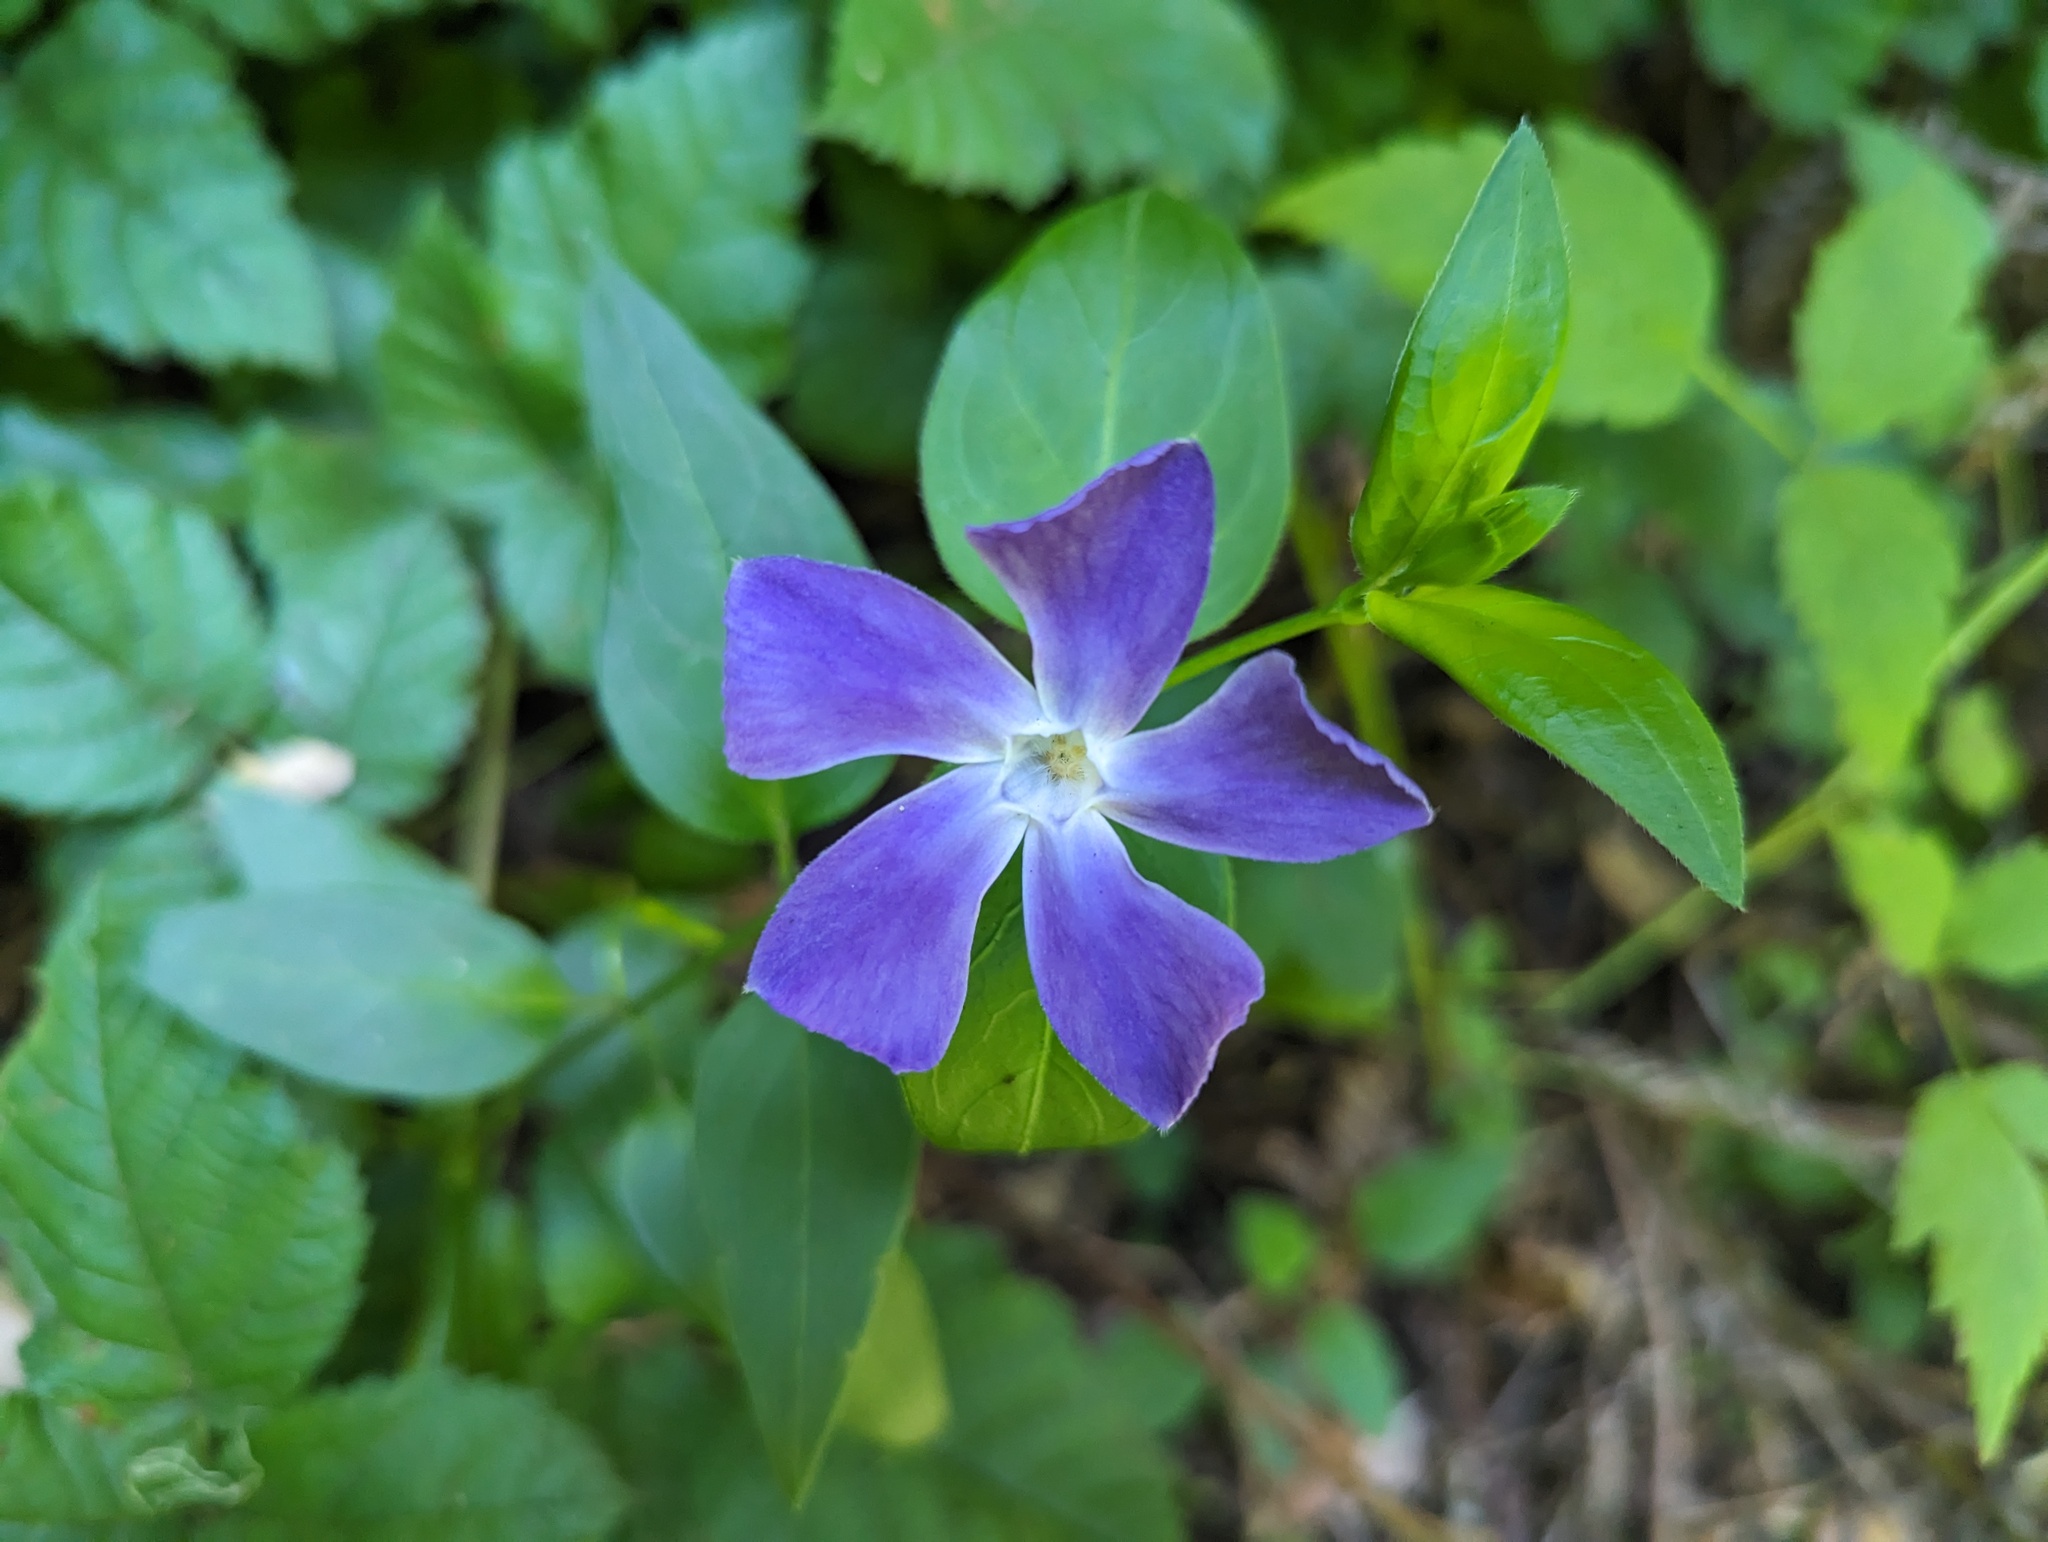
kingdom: Plantae
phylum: Tracheophyta
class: Magnoliopsida
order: Gentianales
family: Apocynaceae
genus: Vinca
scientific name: Vinca major
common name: Greater periwinkle
